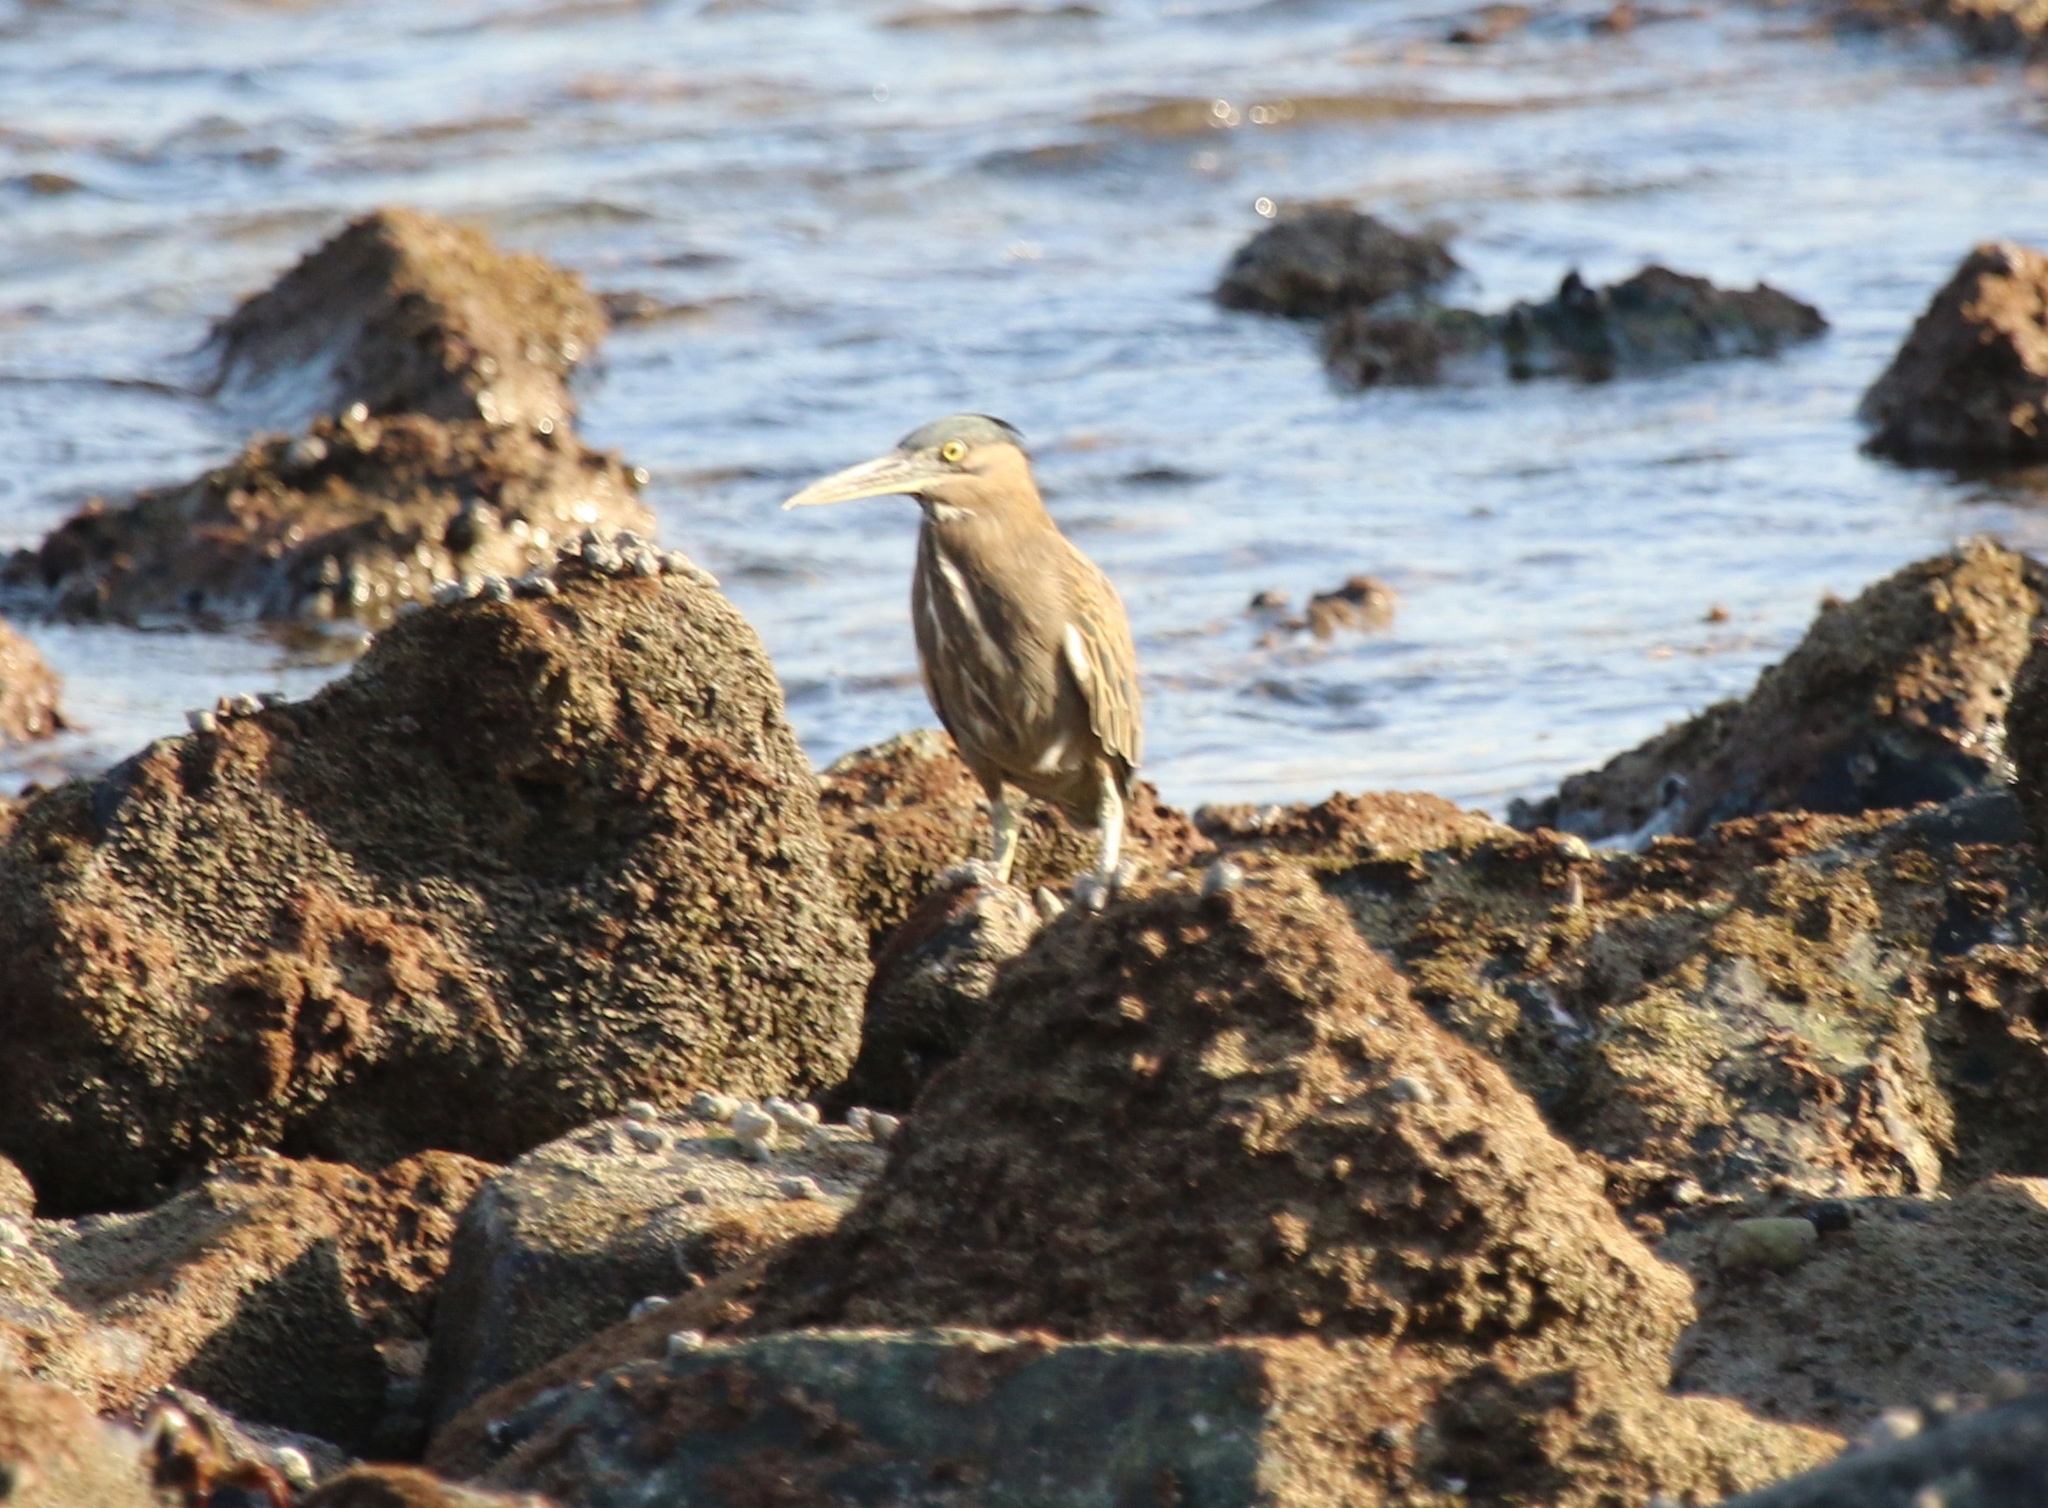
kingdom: Animalia
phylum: Chordata
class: Aves
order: Pelecaniformes
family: Ardeidae
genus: Butorides
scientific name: Butorides striata
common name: Striated heron
